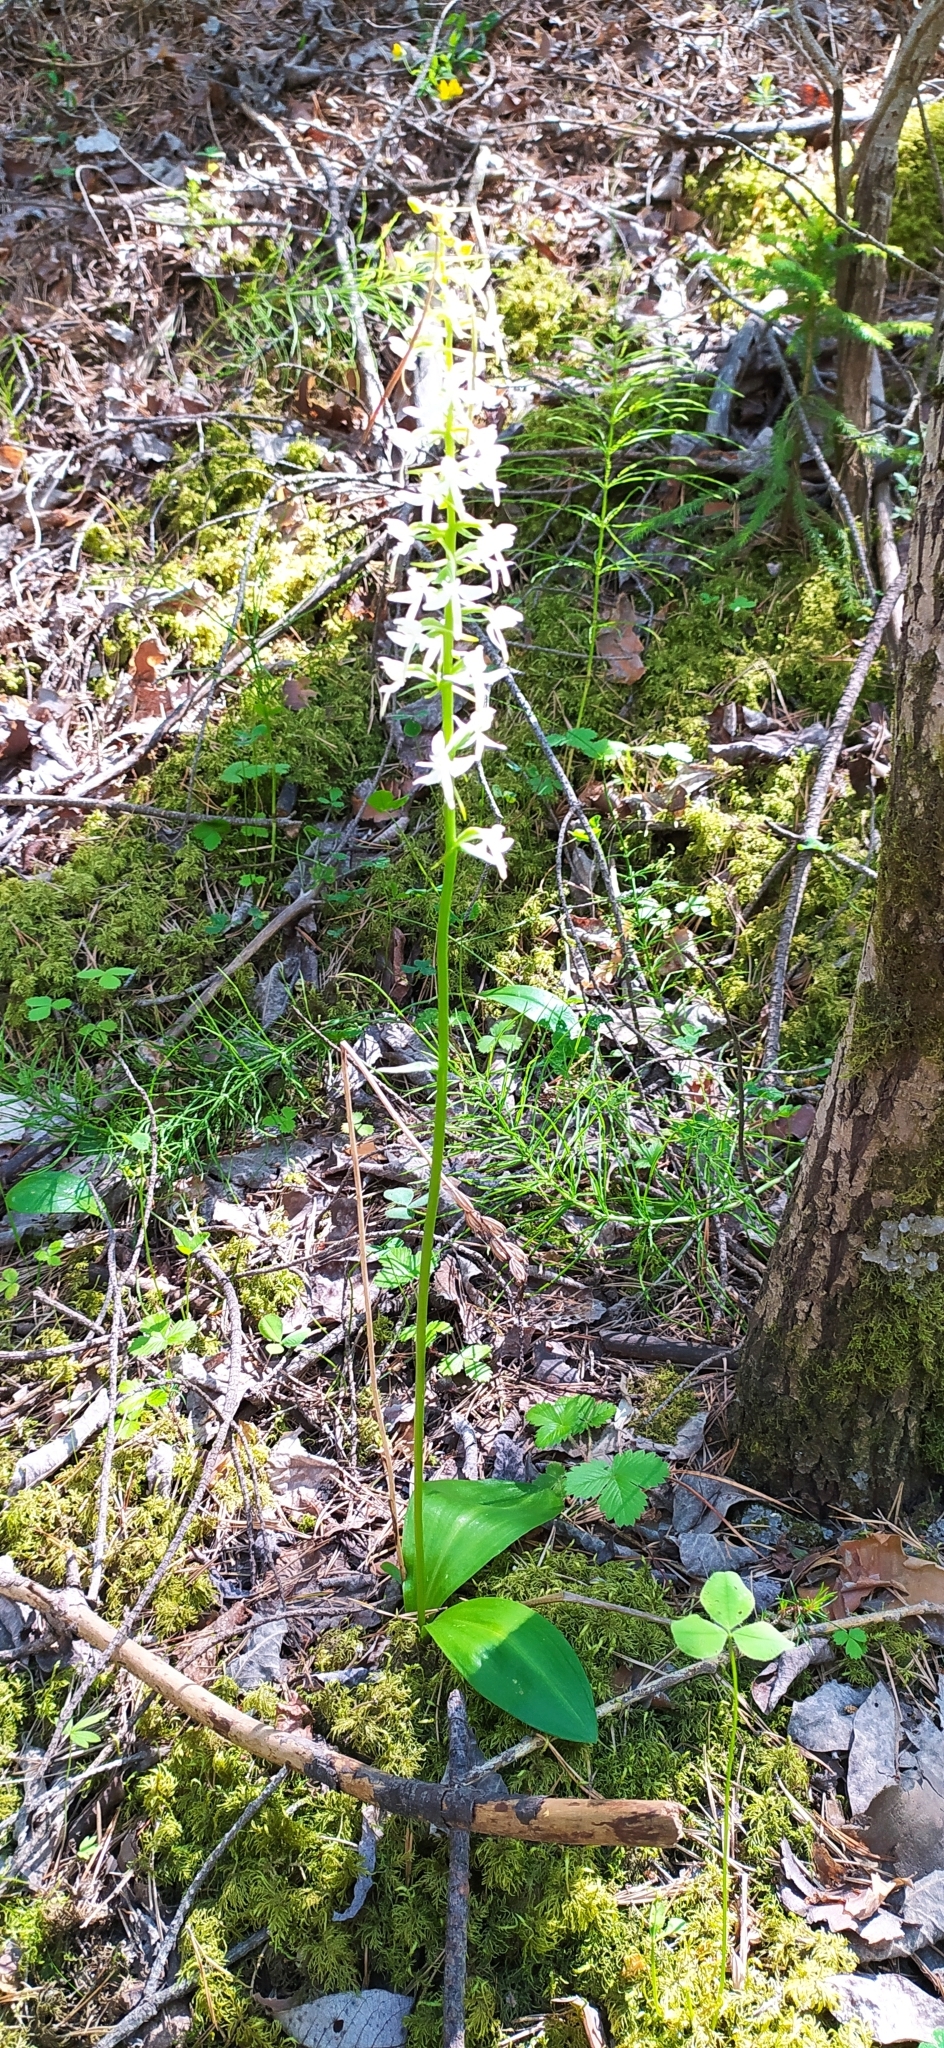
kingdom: Plantae
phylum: Tracheophyta
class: Liliopsida
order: Asparagales
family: Orchidaceae
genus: Platanthera
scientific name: Platanthera bifolia
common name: Lesser butterfly-orchid
